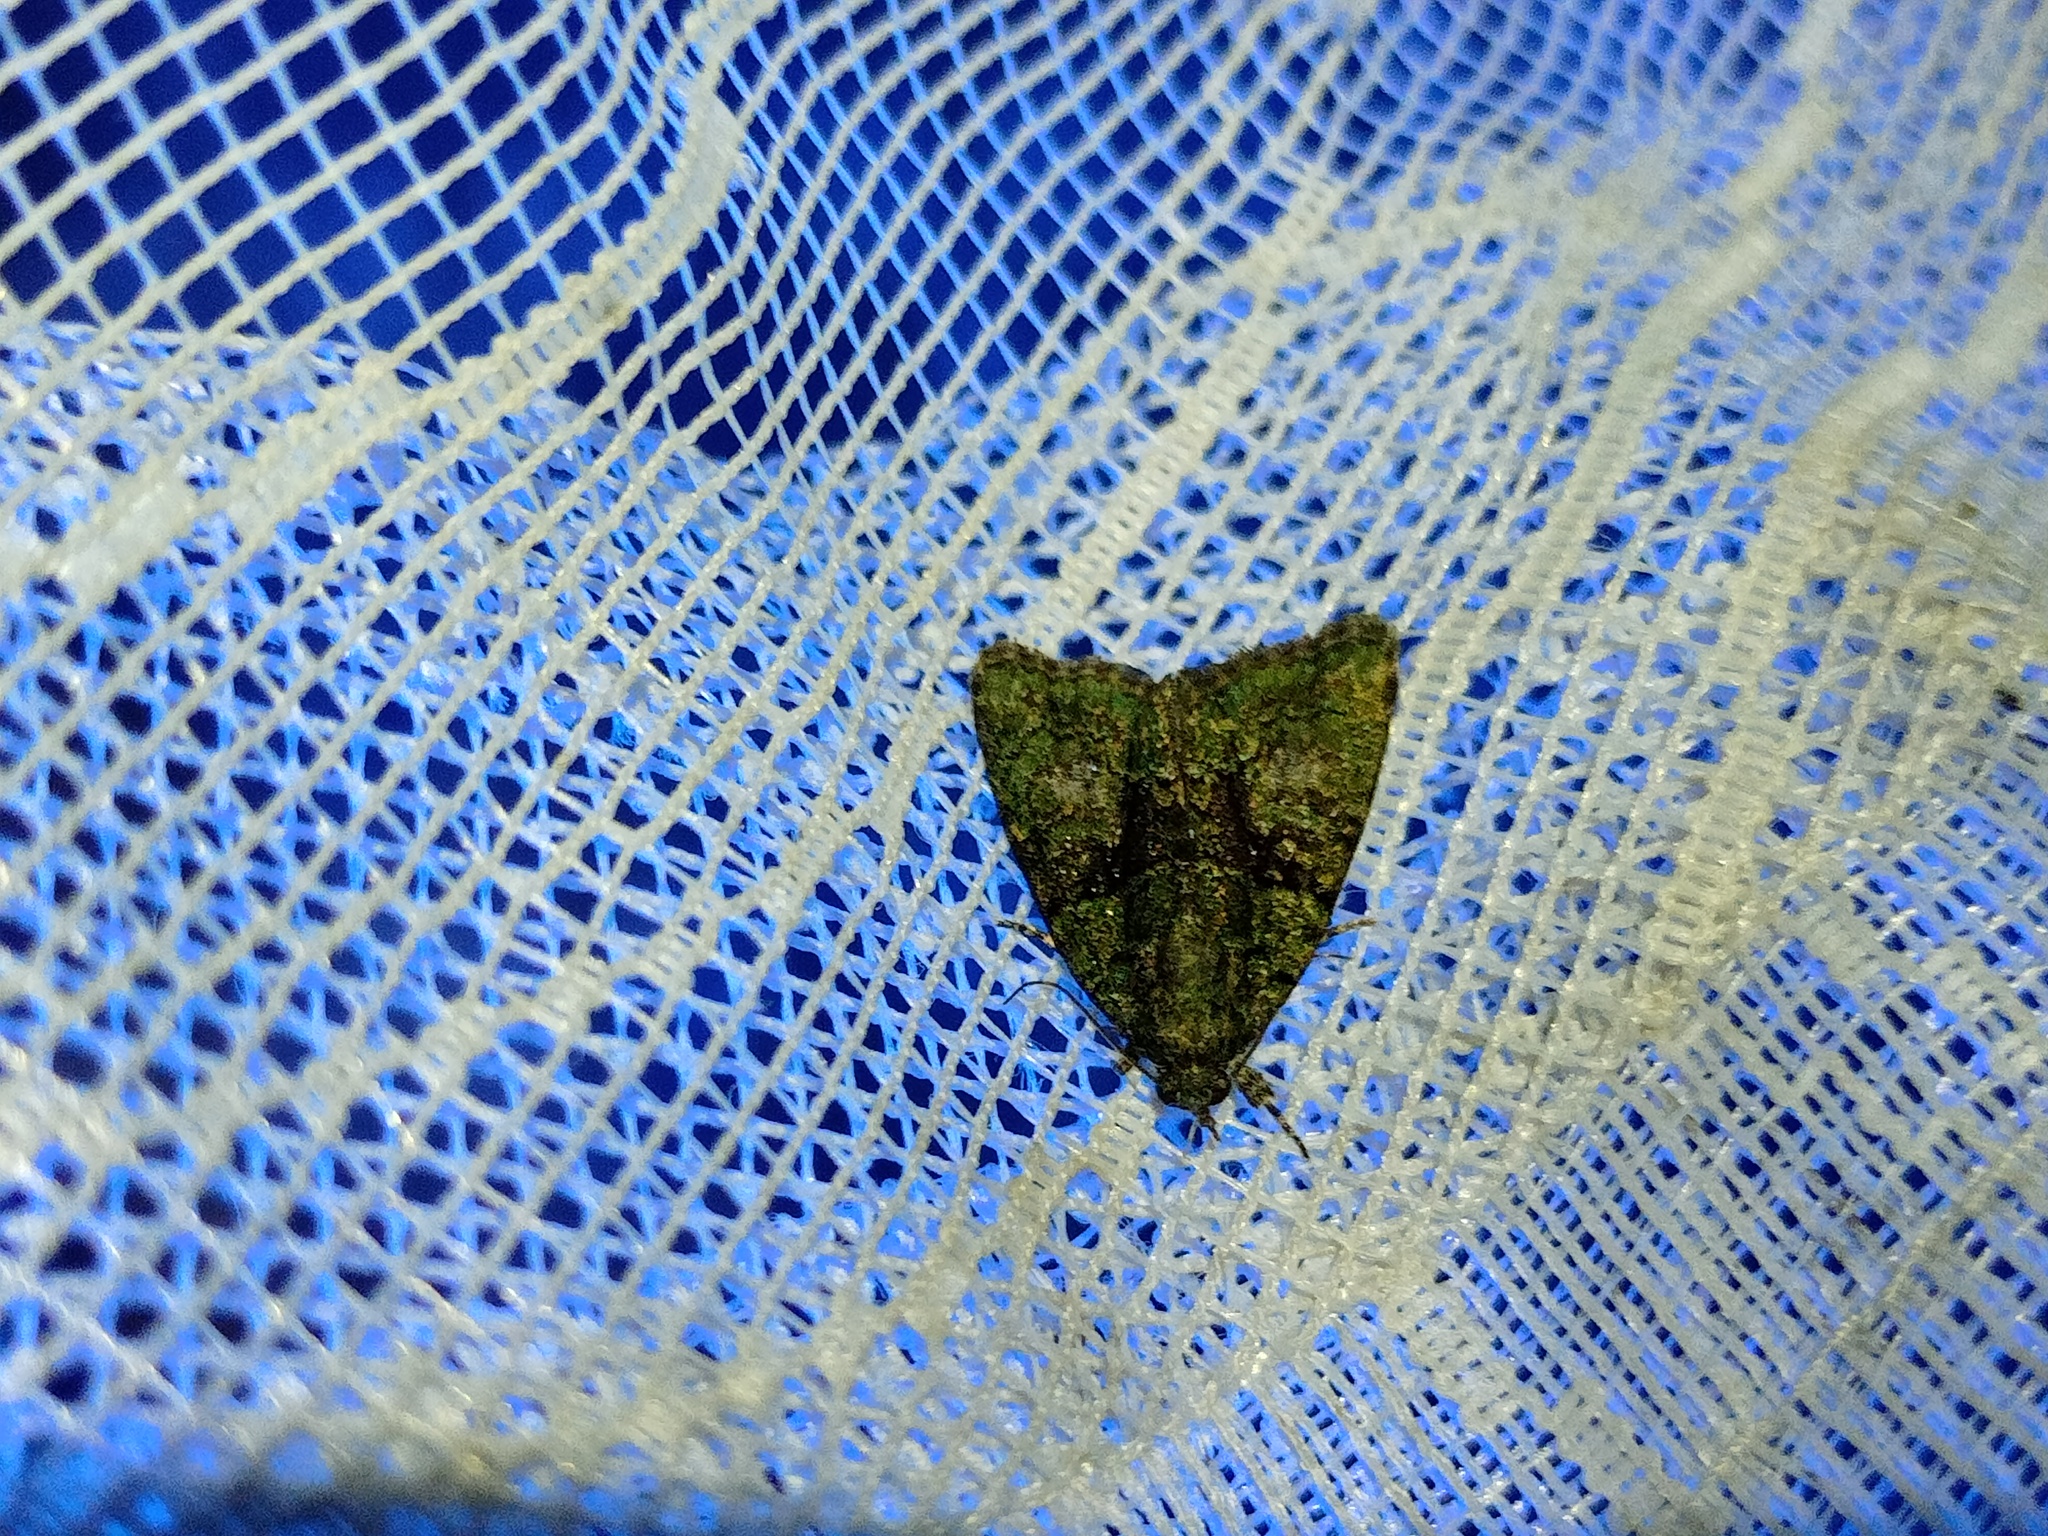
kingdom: Animalia
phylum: Arthropoda
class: Insecta
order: Lepidoptera
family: Noctuidae
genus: Cryphia
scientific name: Cryphia algae
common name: Tree-lichen beauty
